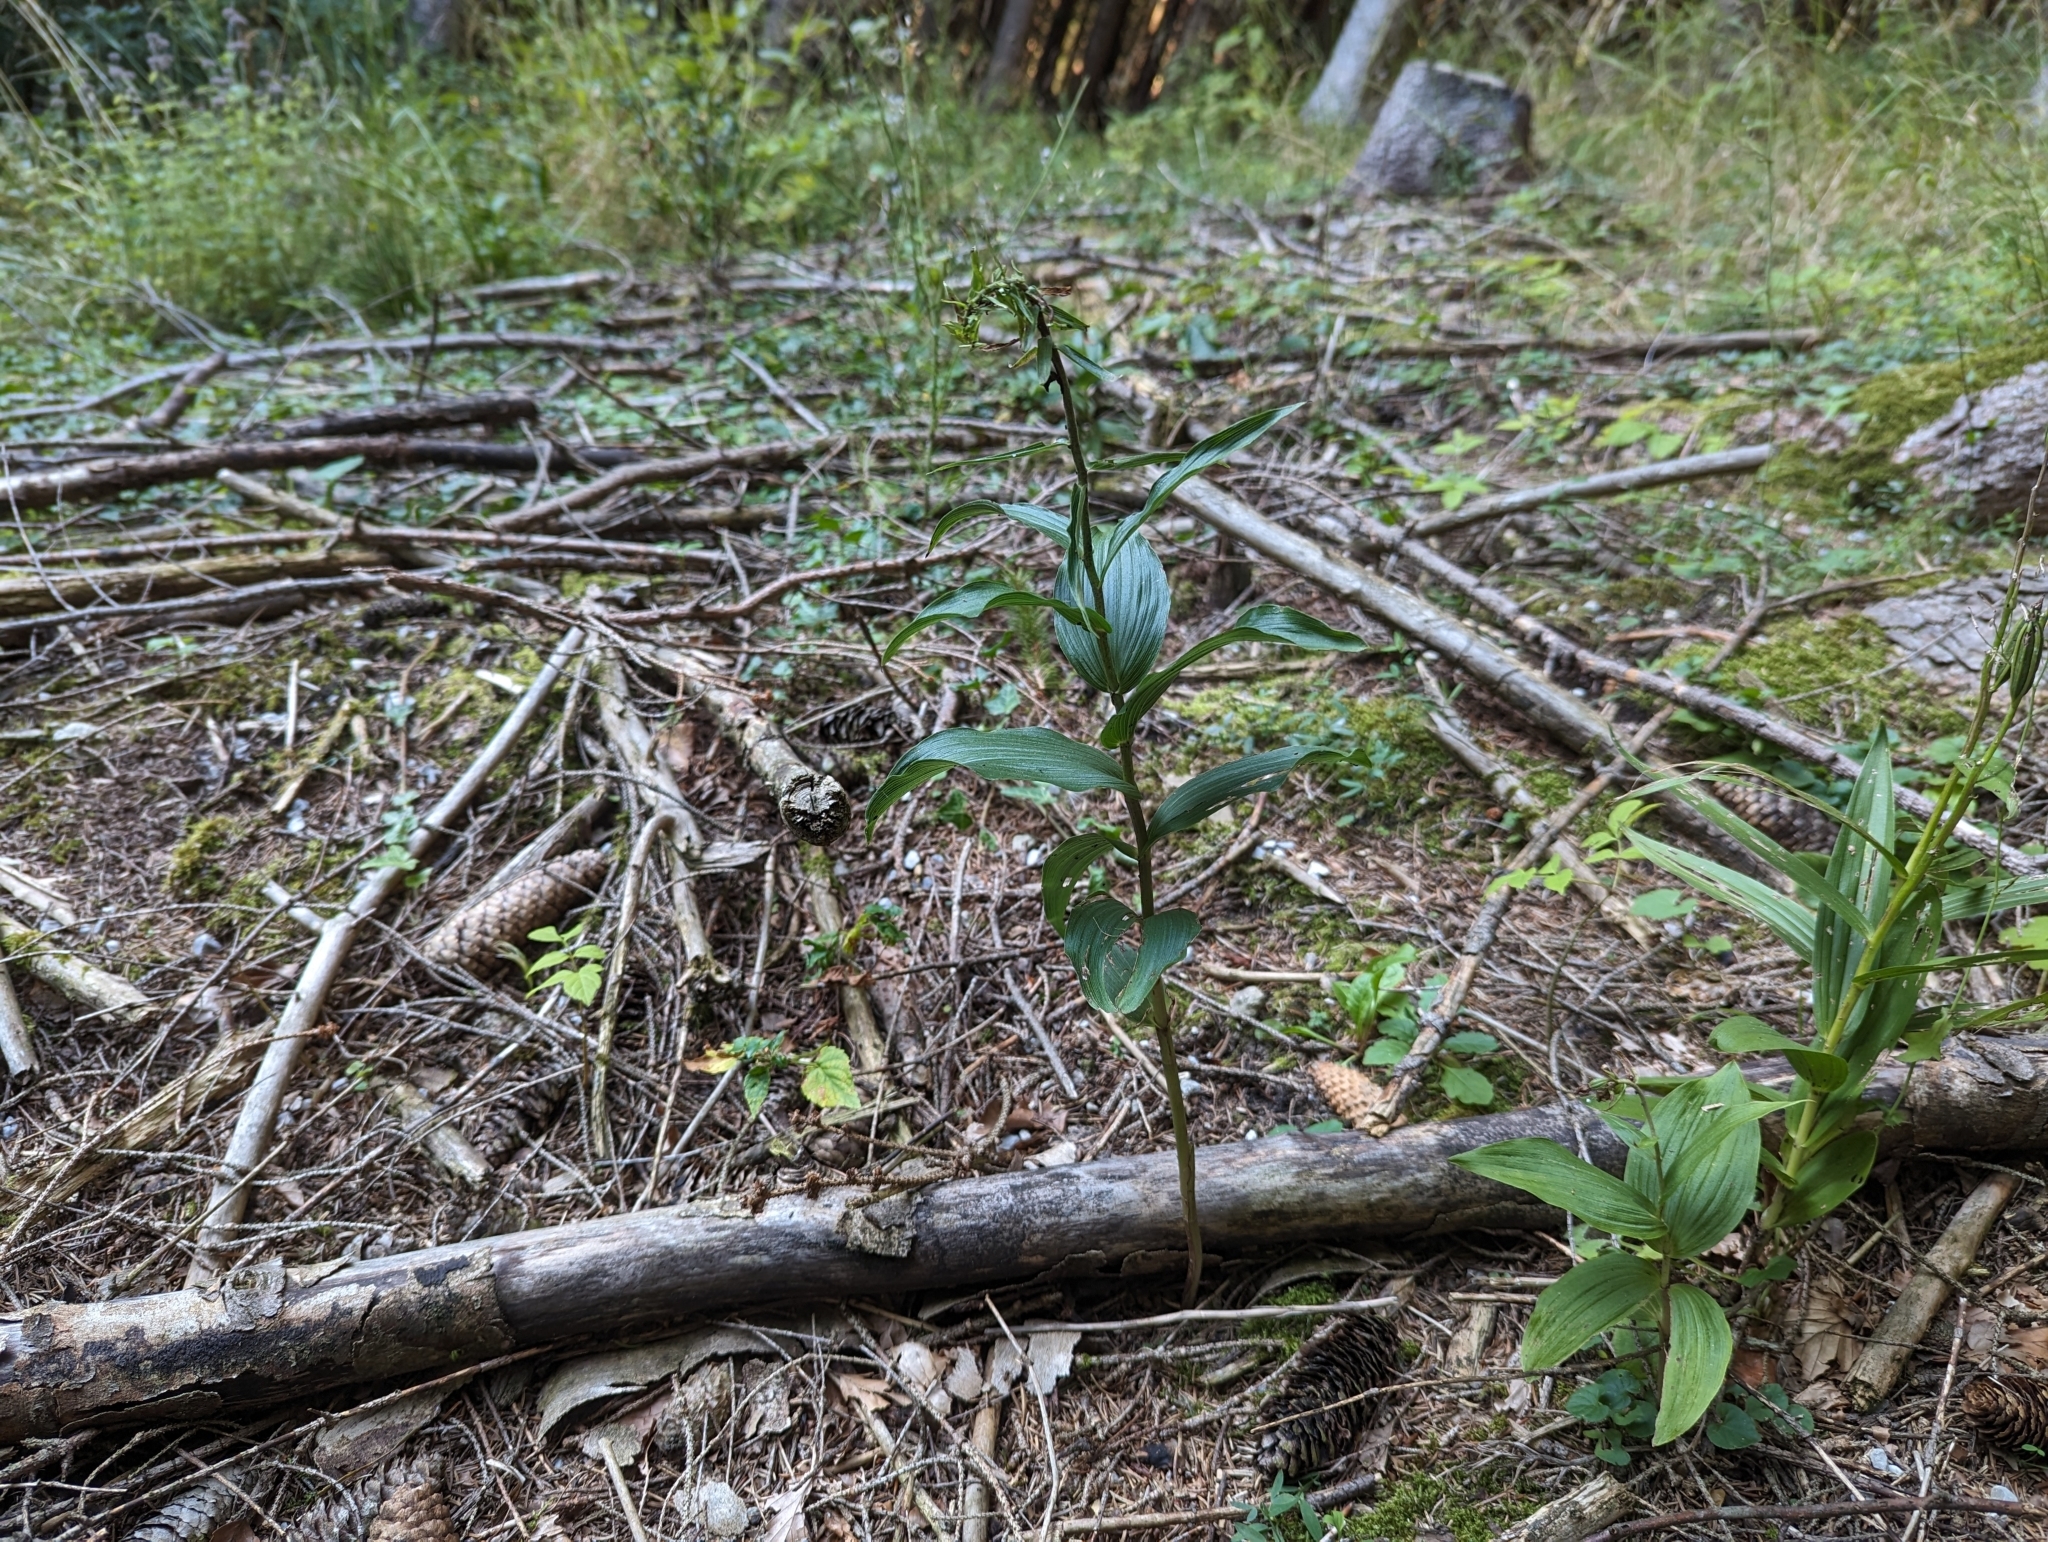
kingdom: Plantae
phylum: Tracheophyta
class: Liliopsida
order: Asparagales
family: Orchidaceae
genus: Epipactis
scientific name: Epipactis helleborine
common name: Broad-leaved helleborine
